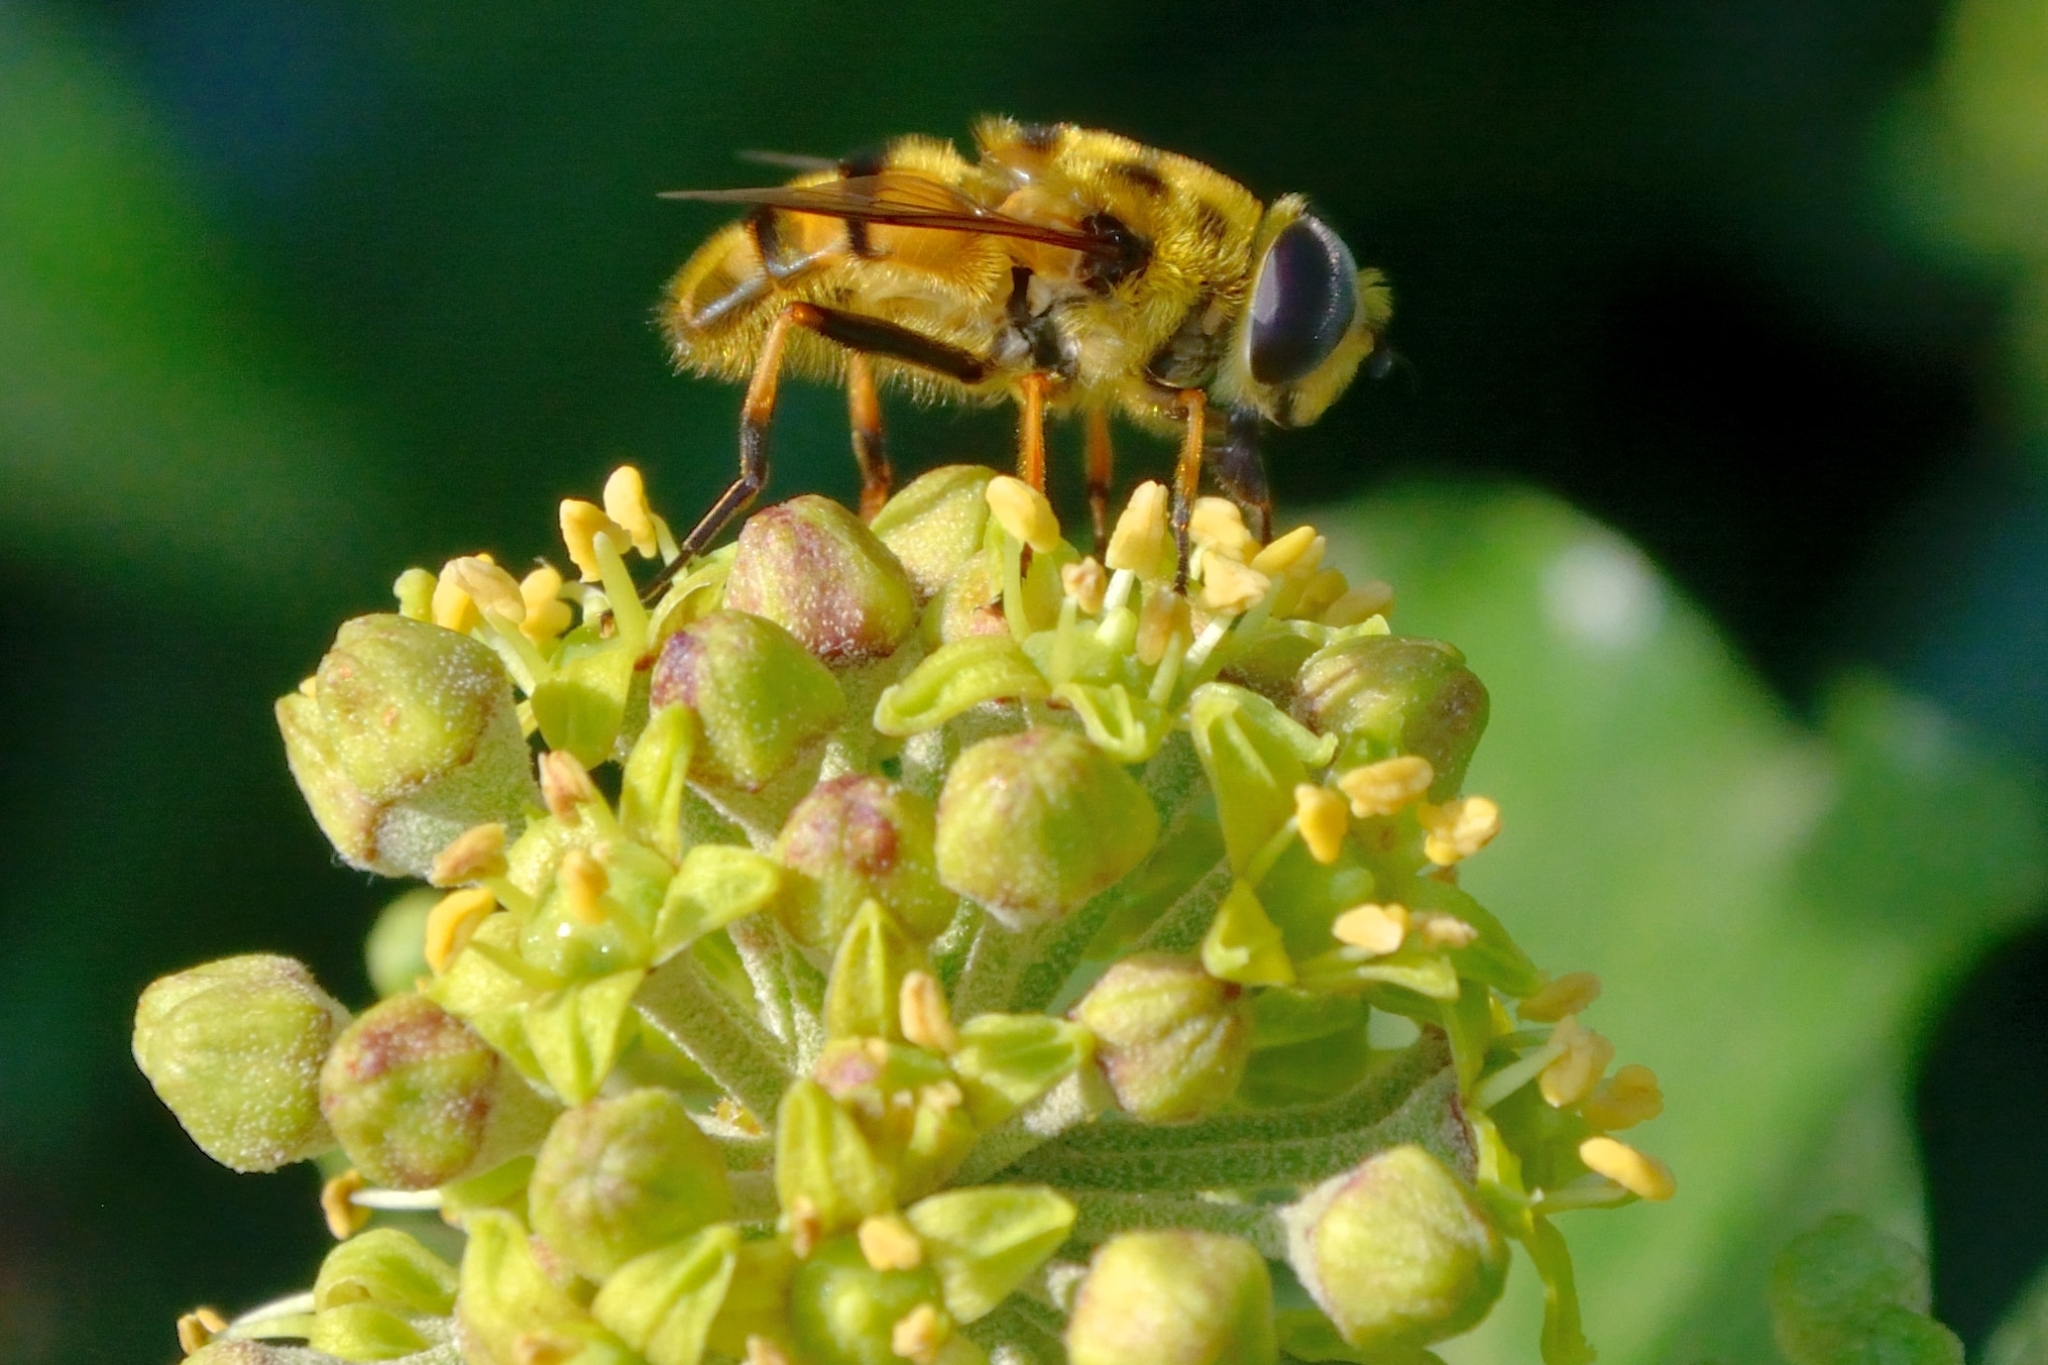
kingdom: Animalia
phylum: Arthropoda
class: Insecta
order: Diptera
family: Syrphidae
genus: Myathropa
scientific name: Myathropa florea
